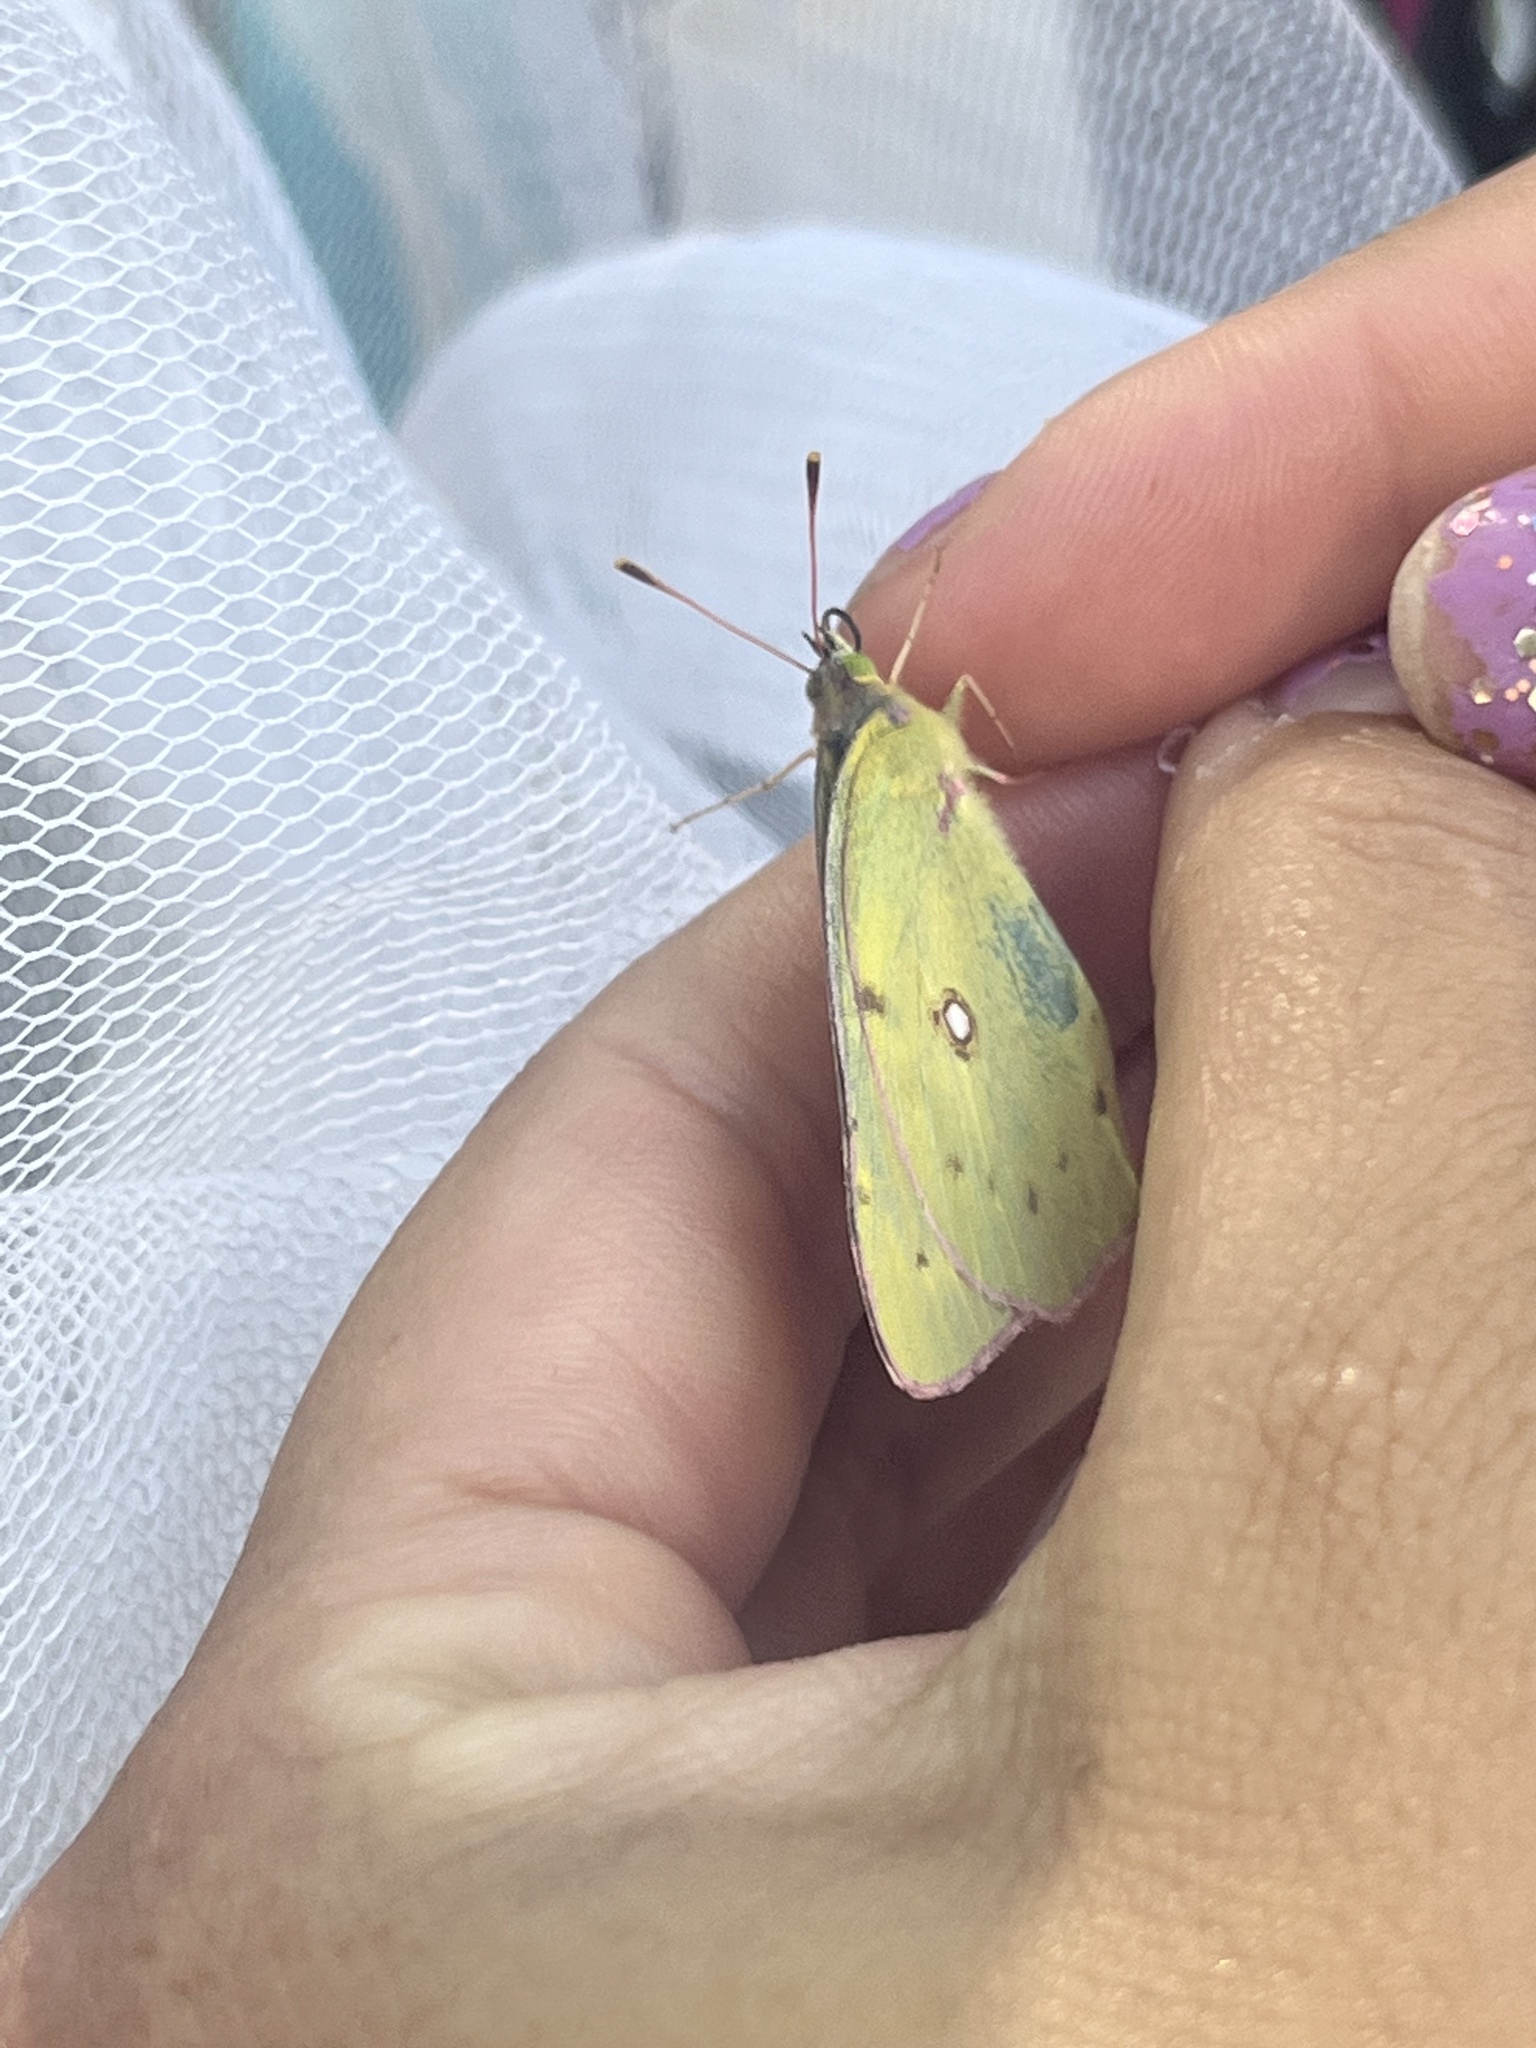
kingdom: Animalia
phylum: Arthropoda
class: Insecta
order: Lepidoptera
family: Pieridae
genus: Colias
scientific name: Colias eurytheme
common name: Alfalfa butterfly
